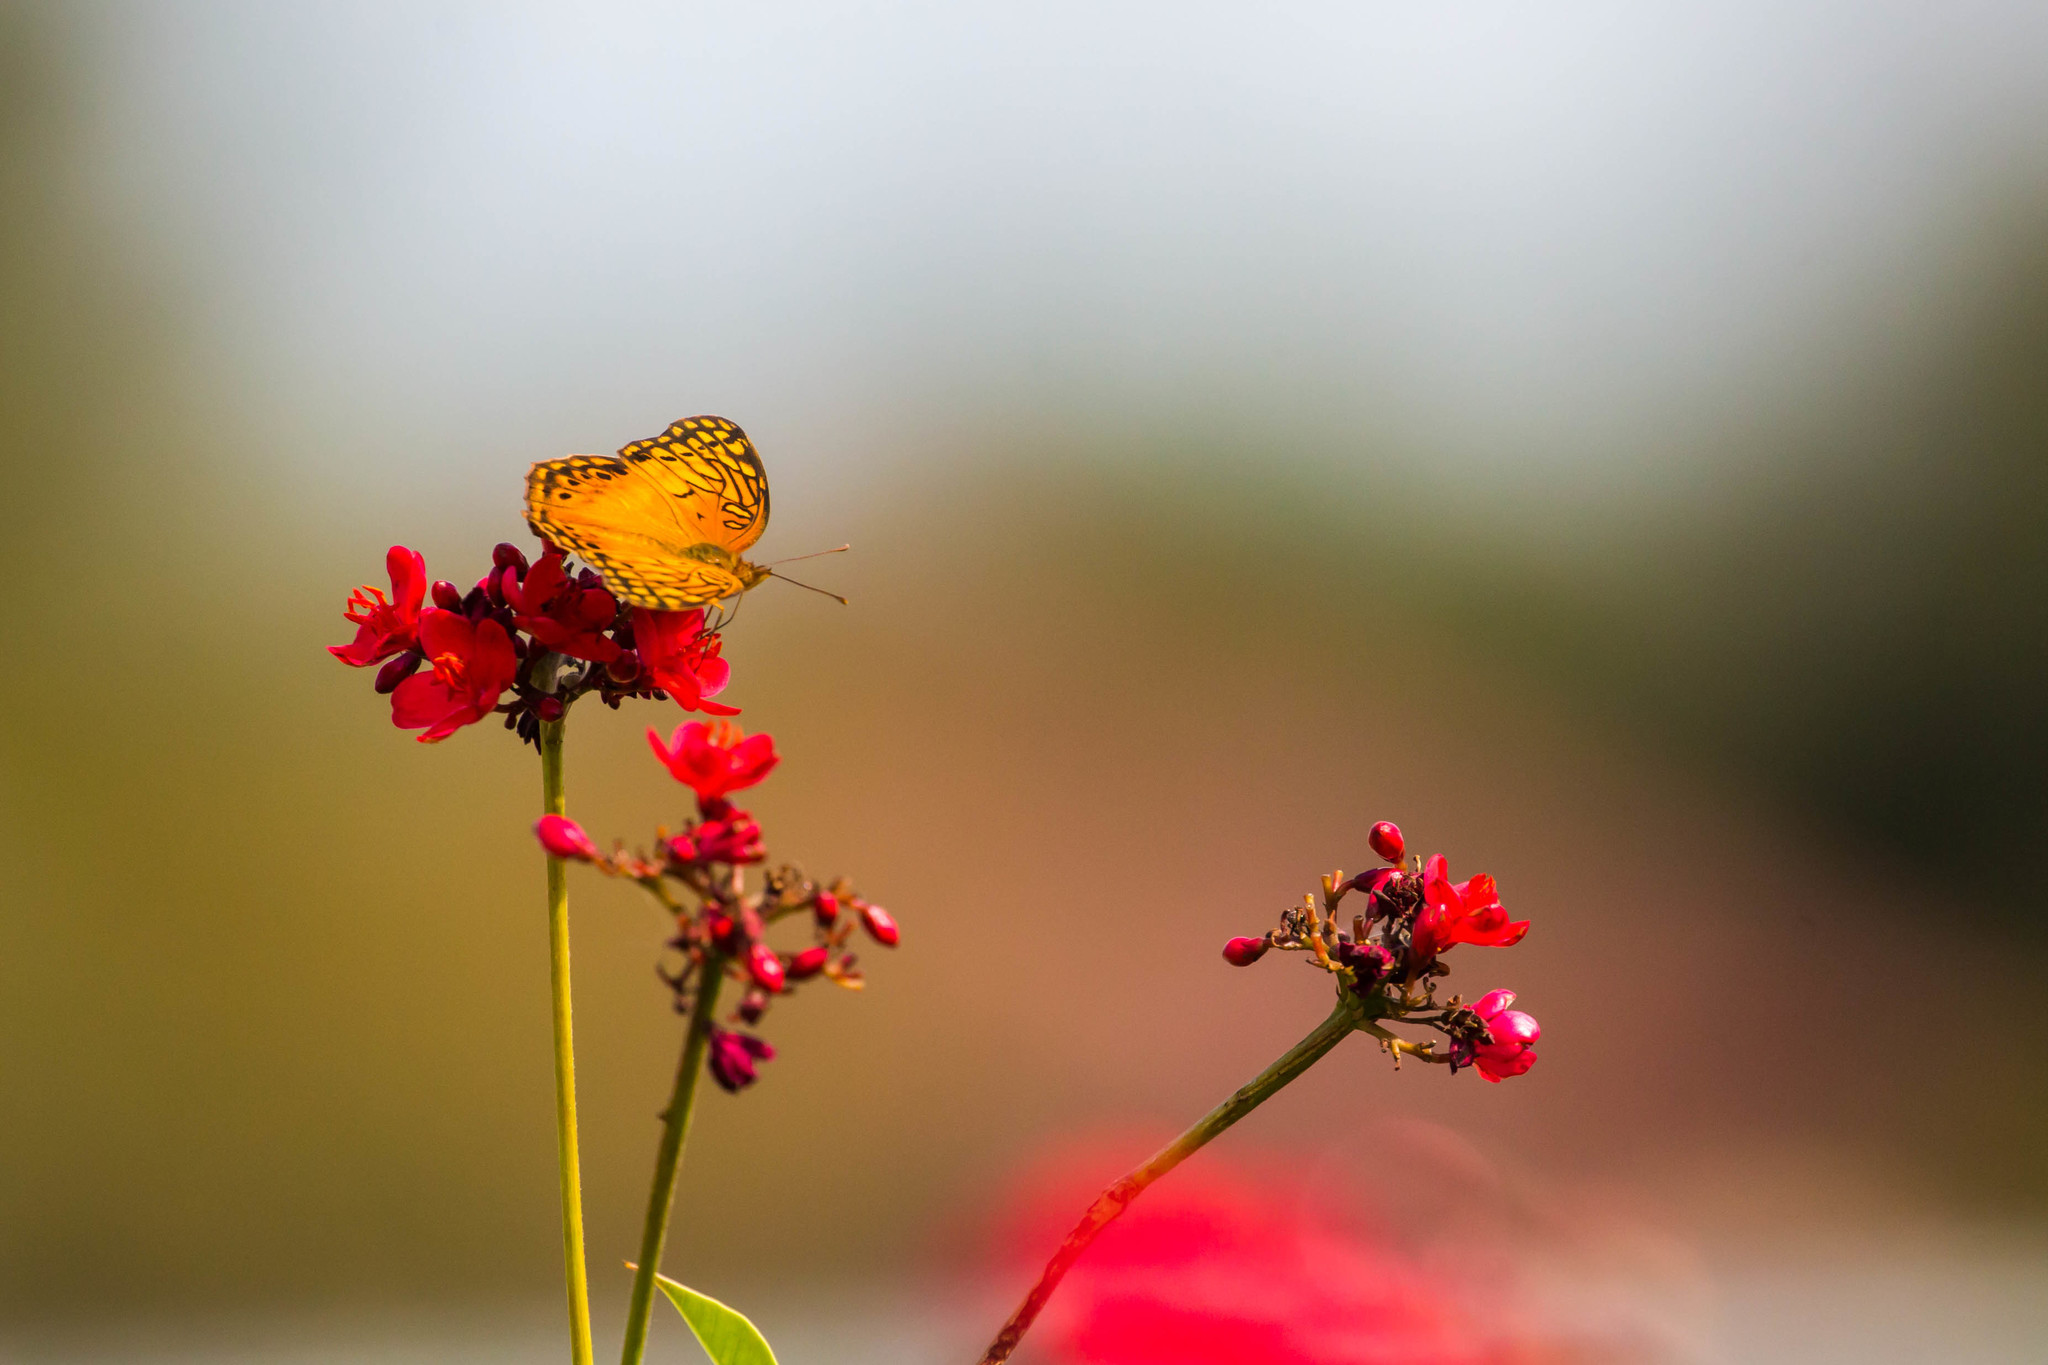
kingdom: Animalia
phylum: Arthropoda
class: Insecta
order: Lepidoptera
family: Nymphalidae
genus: Euptoieta
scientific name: Euptoieta hegesia
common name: Mexican fritillary
